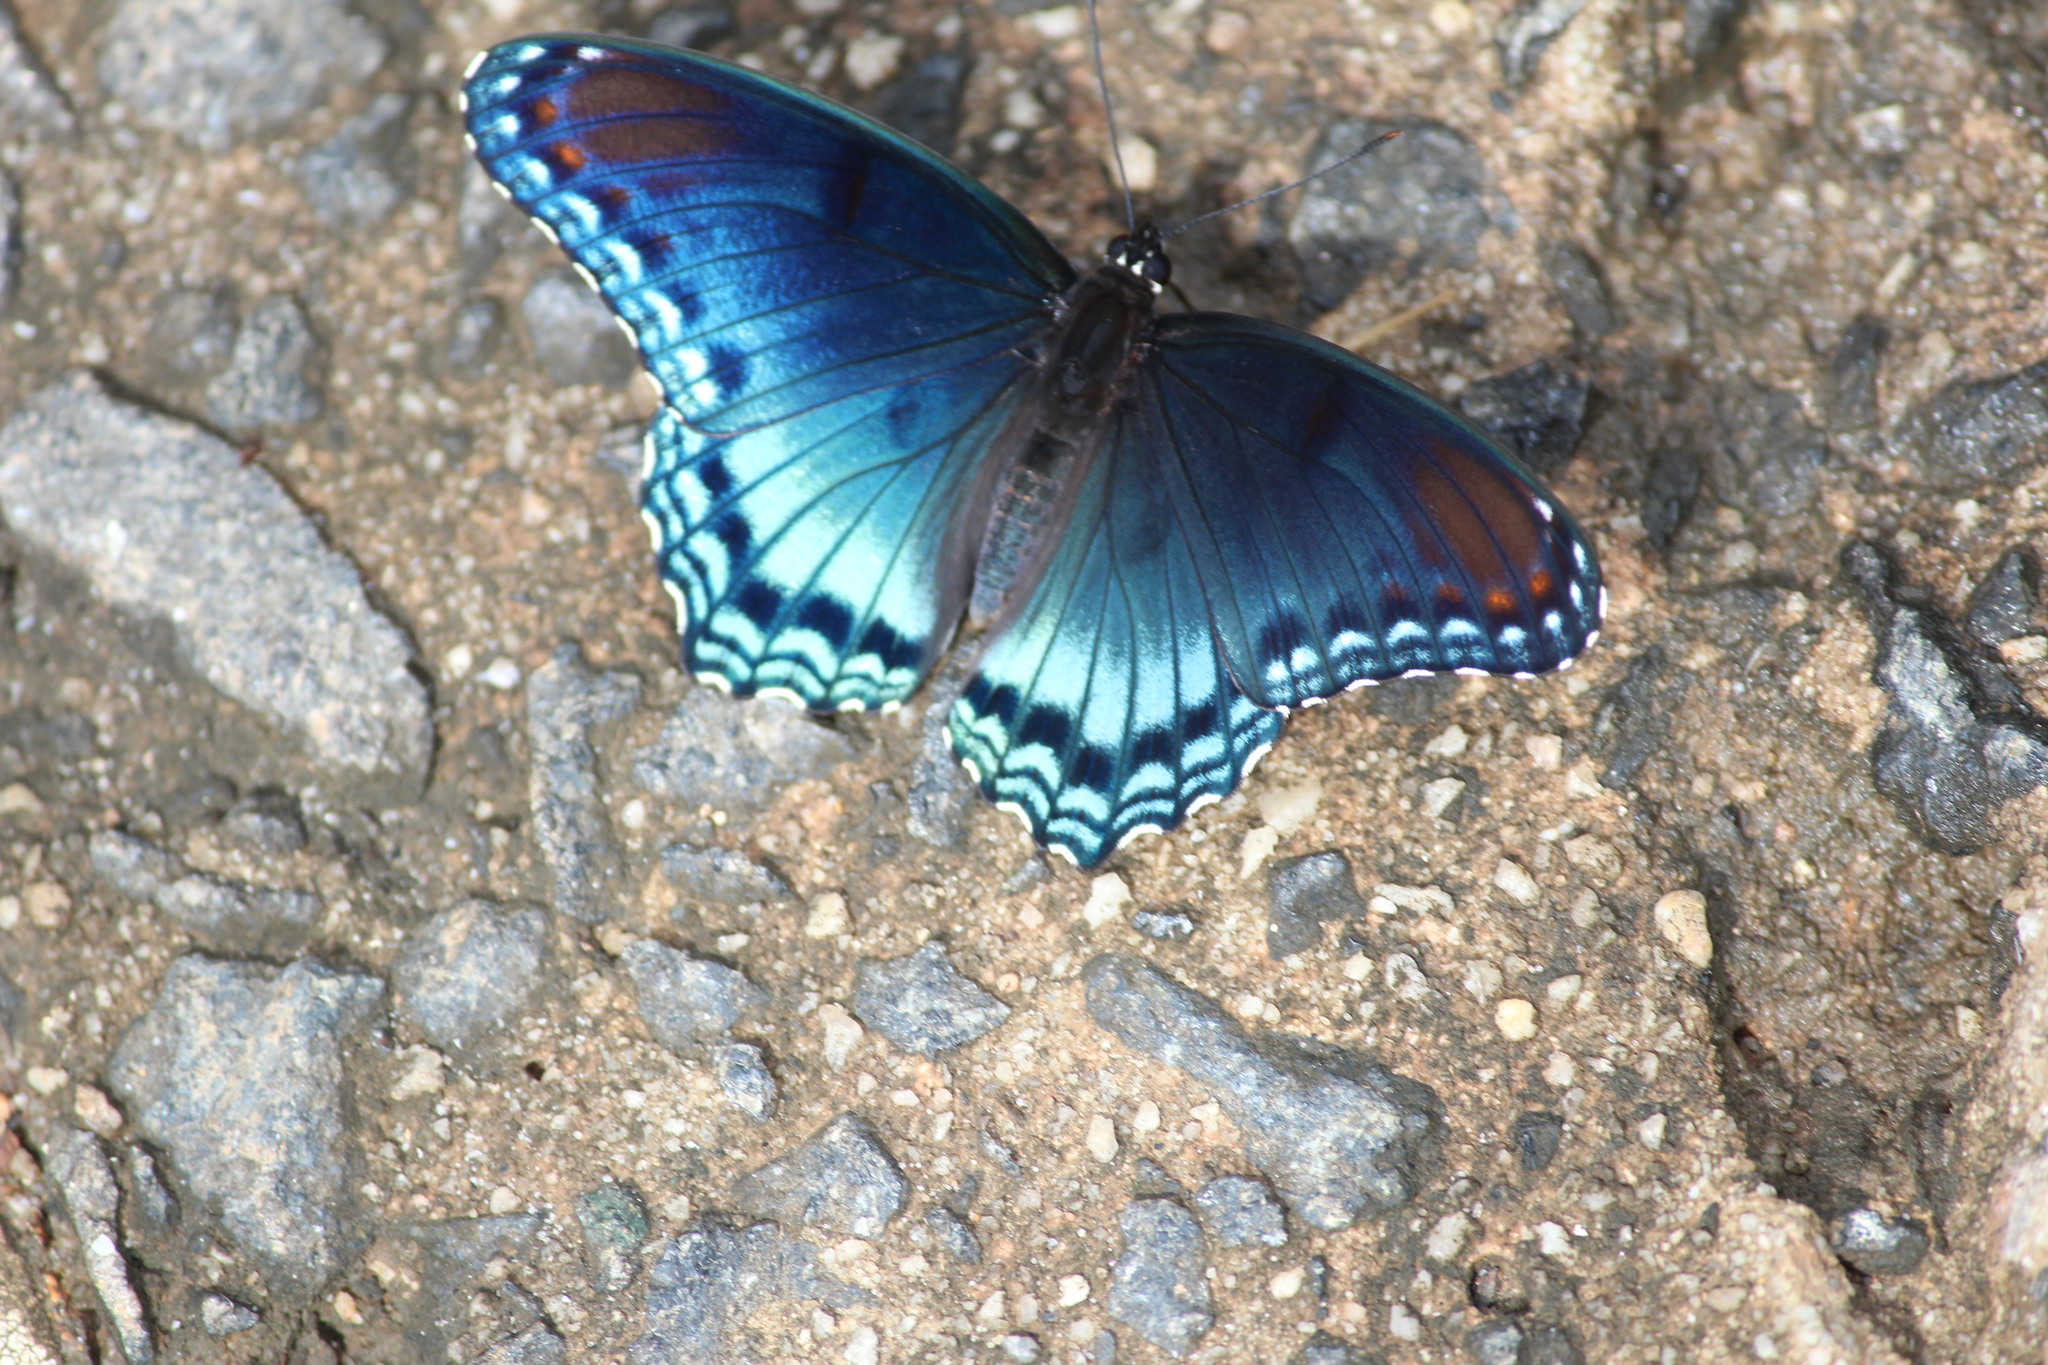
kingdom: Animalia
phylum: Arthropoda
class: Insecta
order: Lepidoptera
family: Nymphalidae
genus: Limenitis
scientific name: Limenitis astyanax
